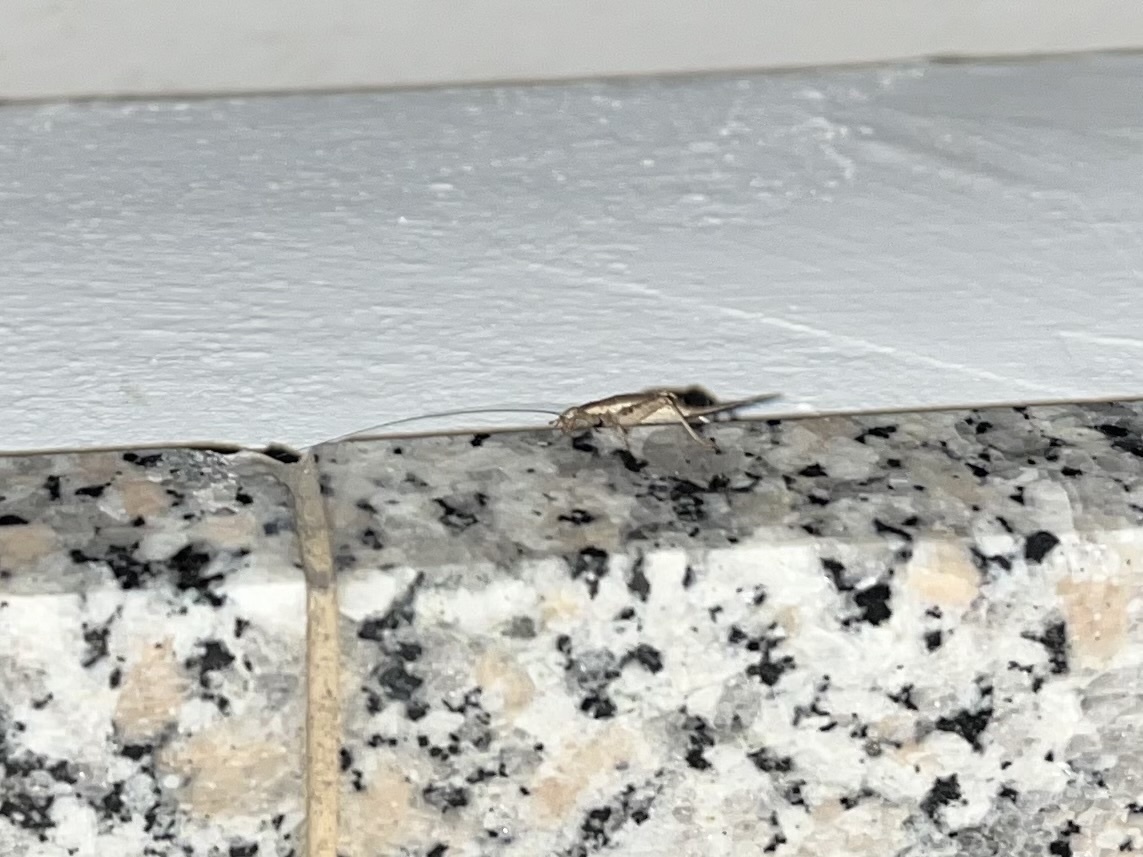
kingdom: Animalia
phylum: Arthropoda
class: Insecta
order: Orthoptera
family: Mogoplistidae
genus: Arachnocephalus
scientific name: Arachnocephalus vestitus
